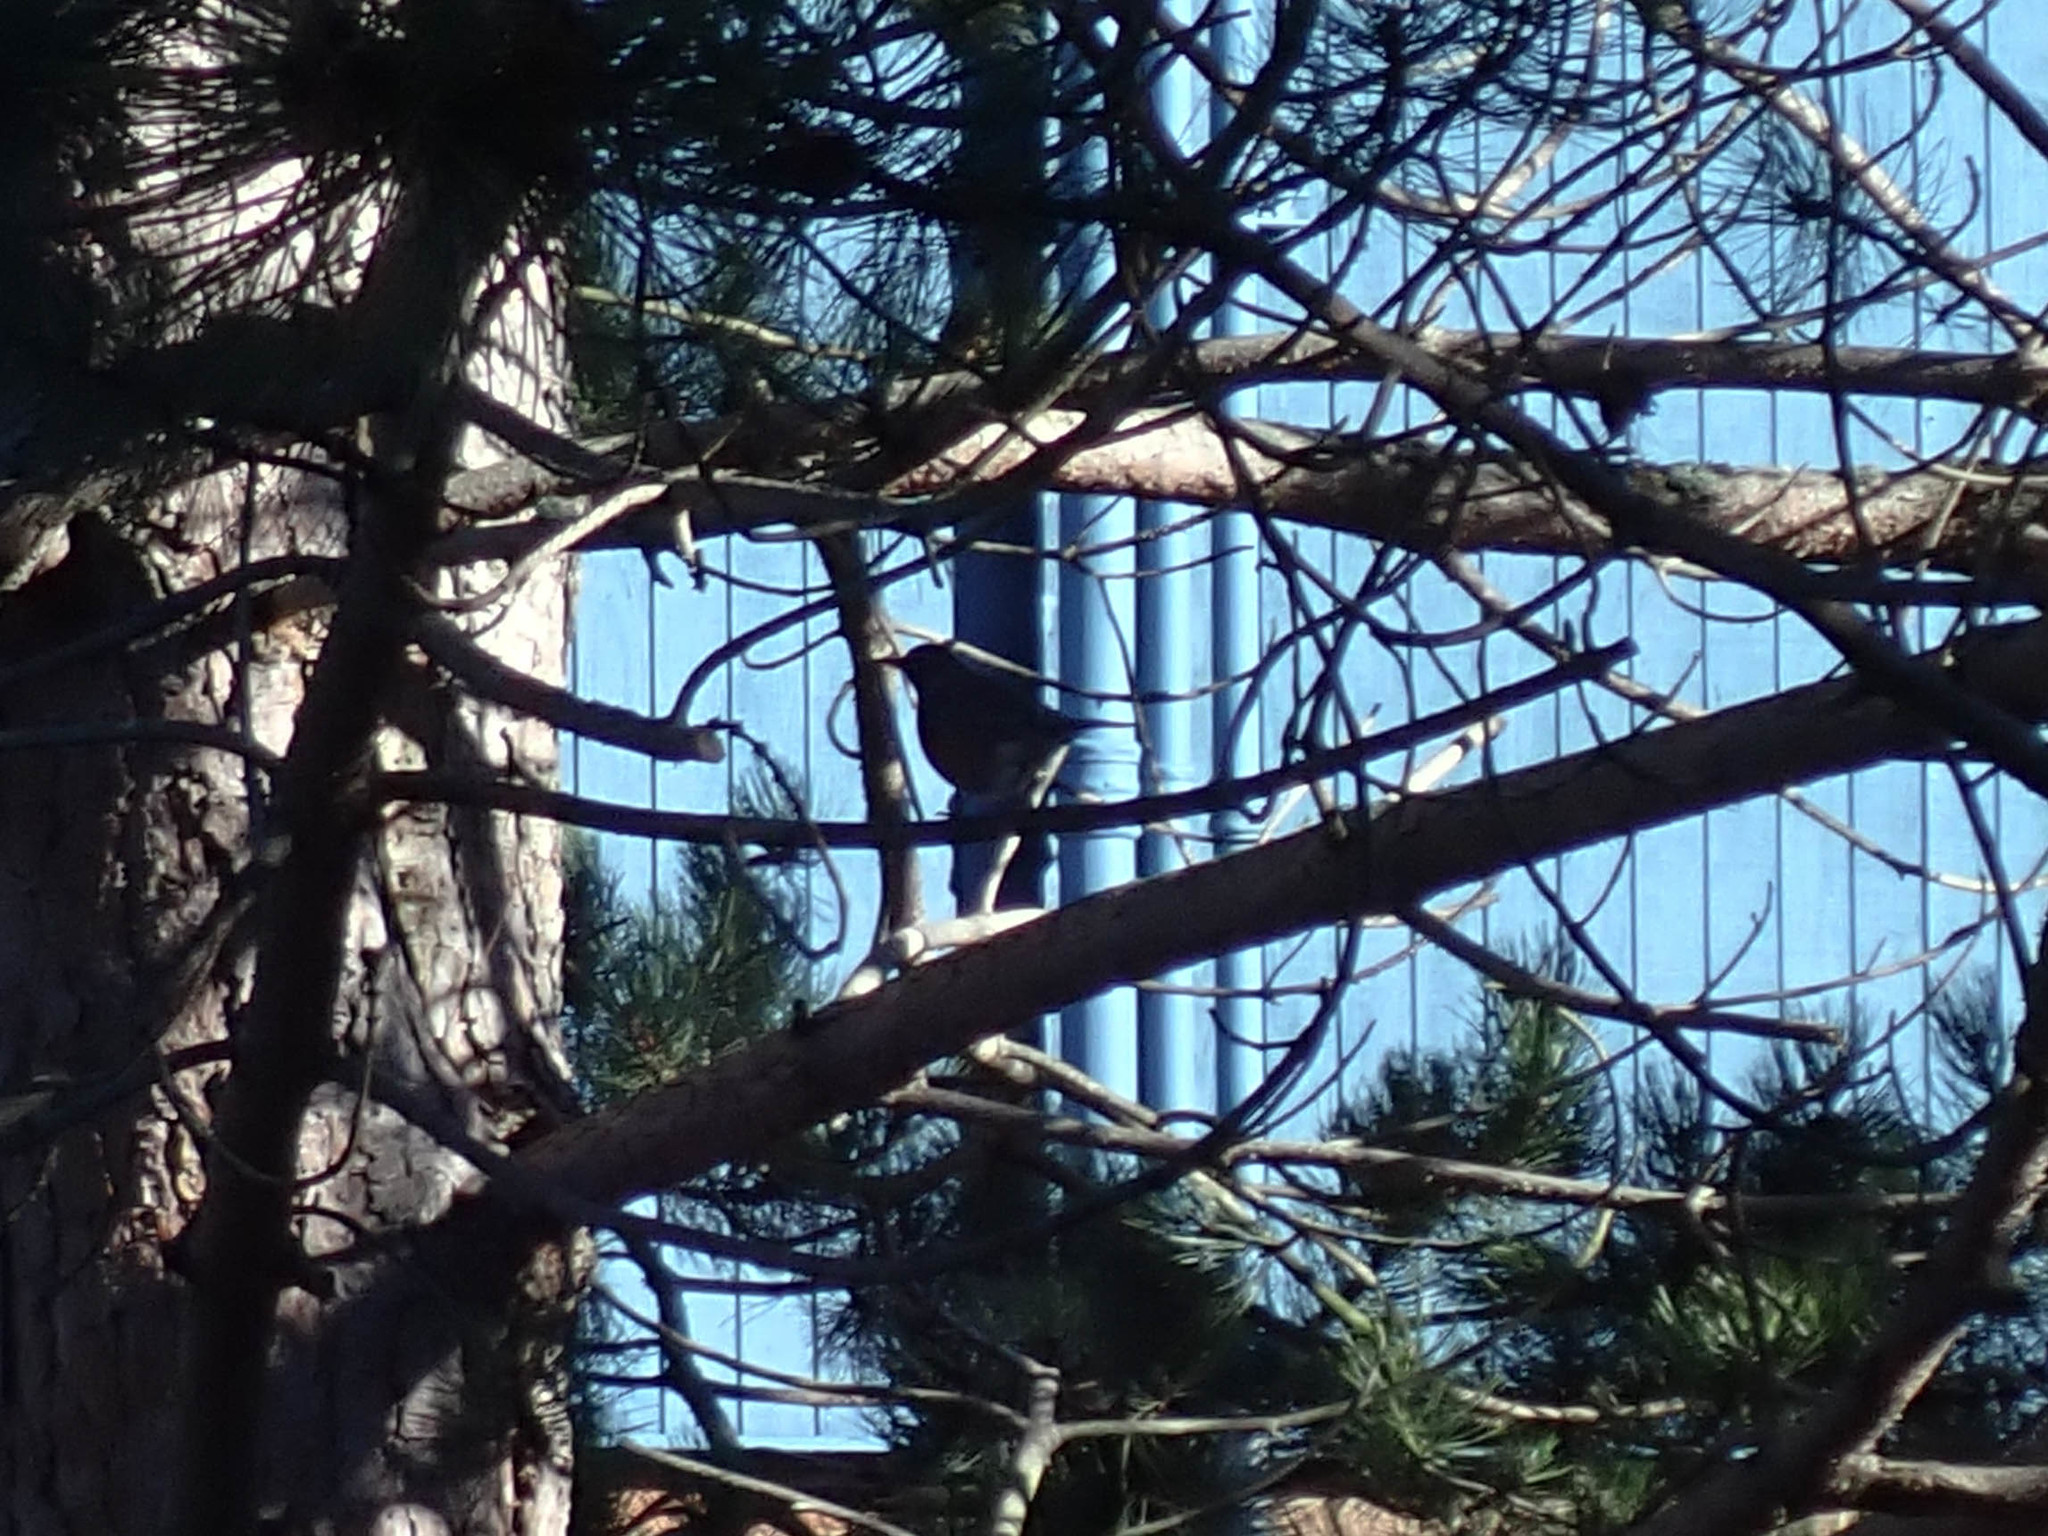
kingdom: Animalia
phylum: Chordata
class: Aves
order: Passeriformes
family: Turdidae
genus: Turdus
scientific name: Turdus migratorius
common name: American robin
